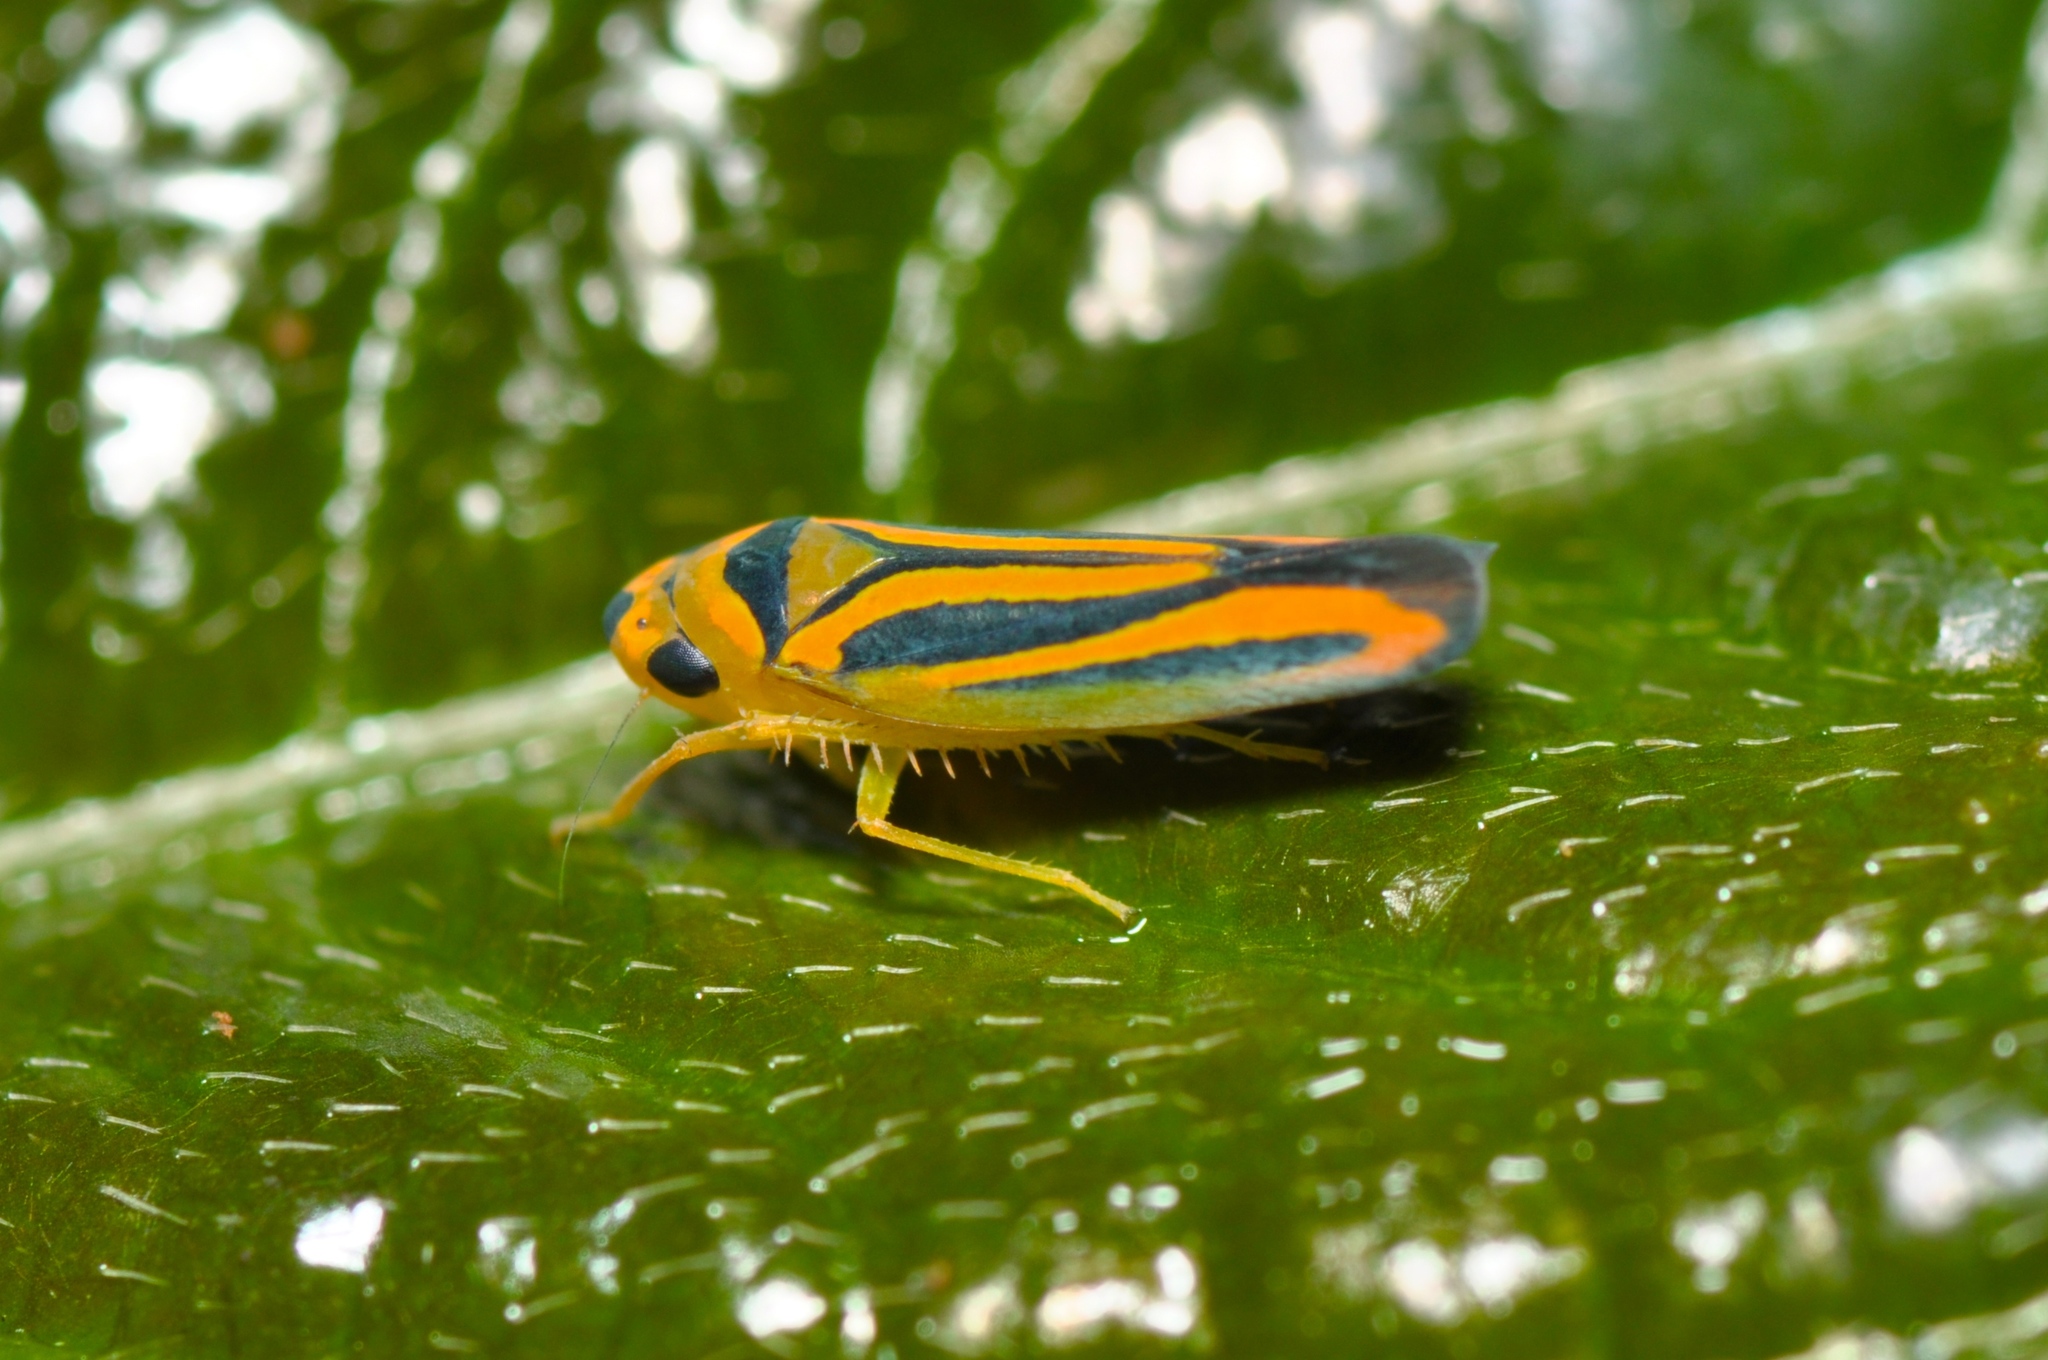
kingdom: Animalia
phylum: Arthropoda
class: Insecta
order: Hemiptera
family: Cicadellidae
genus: Juliaca
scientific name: Juliaca homalina
